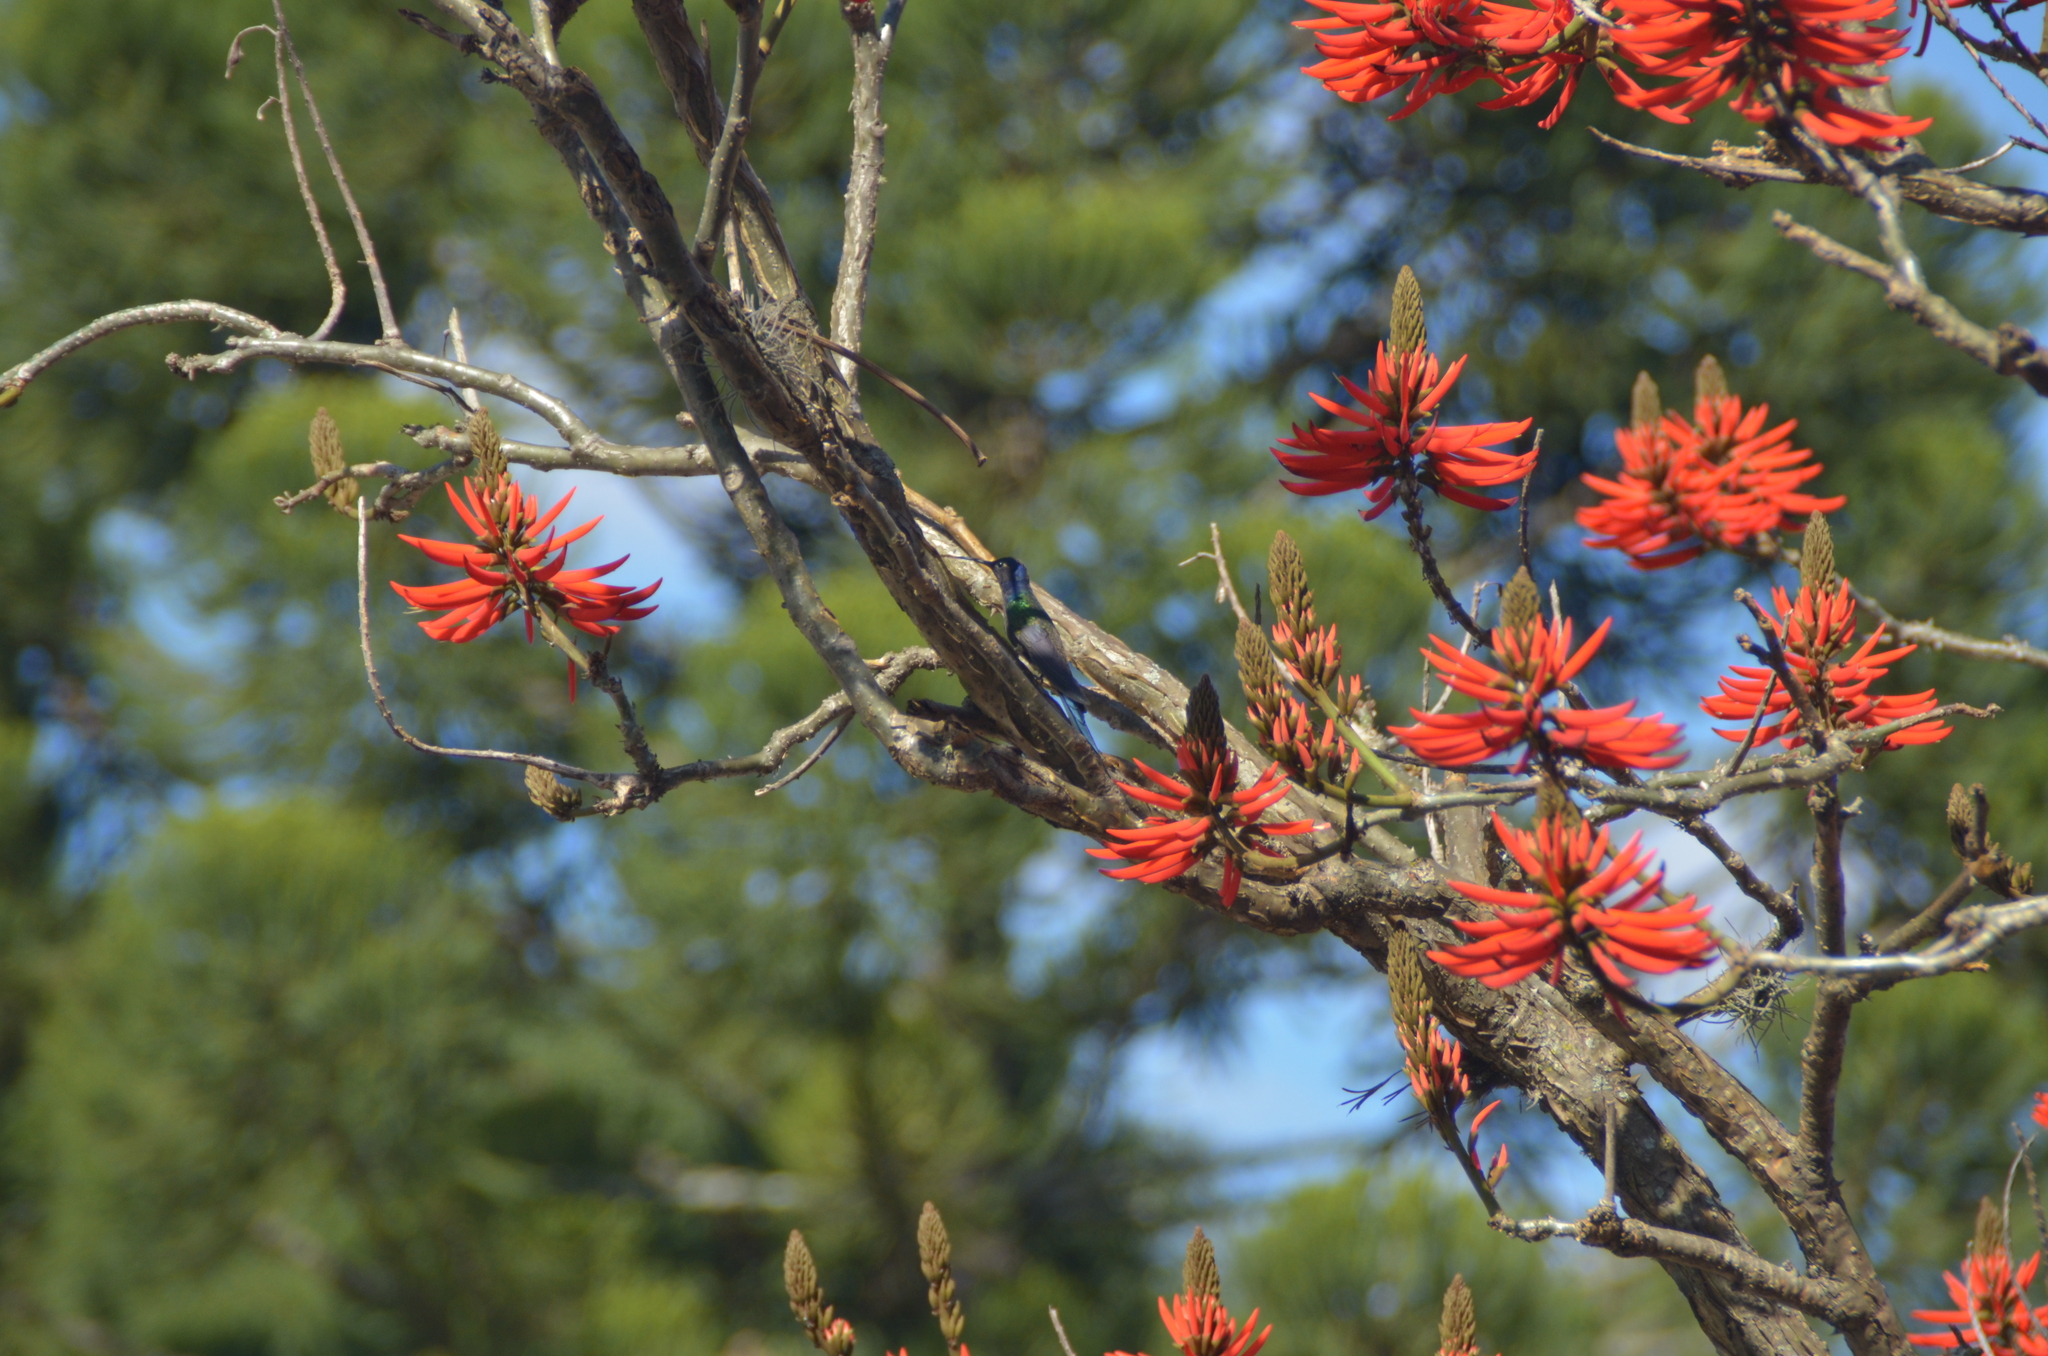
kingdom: Animalia
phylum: Chordata
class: Aves
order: Apodiformes
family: Trochilidae
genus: Eupetomena
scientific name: Eupetomena macroura
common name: Swallow-tailed hummingbird
